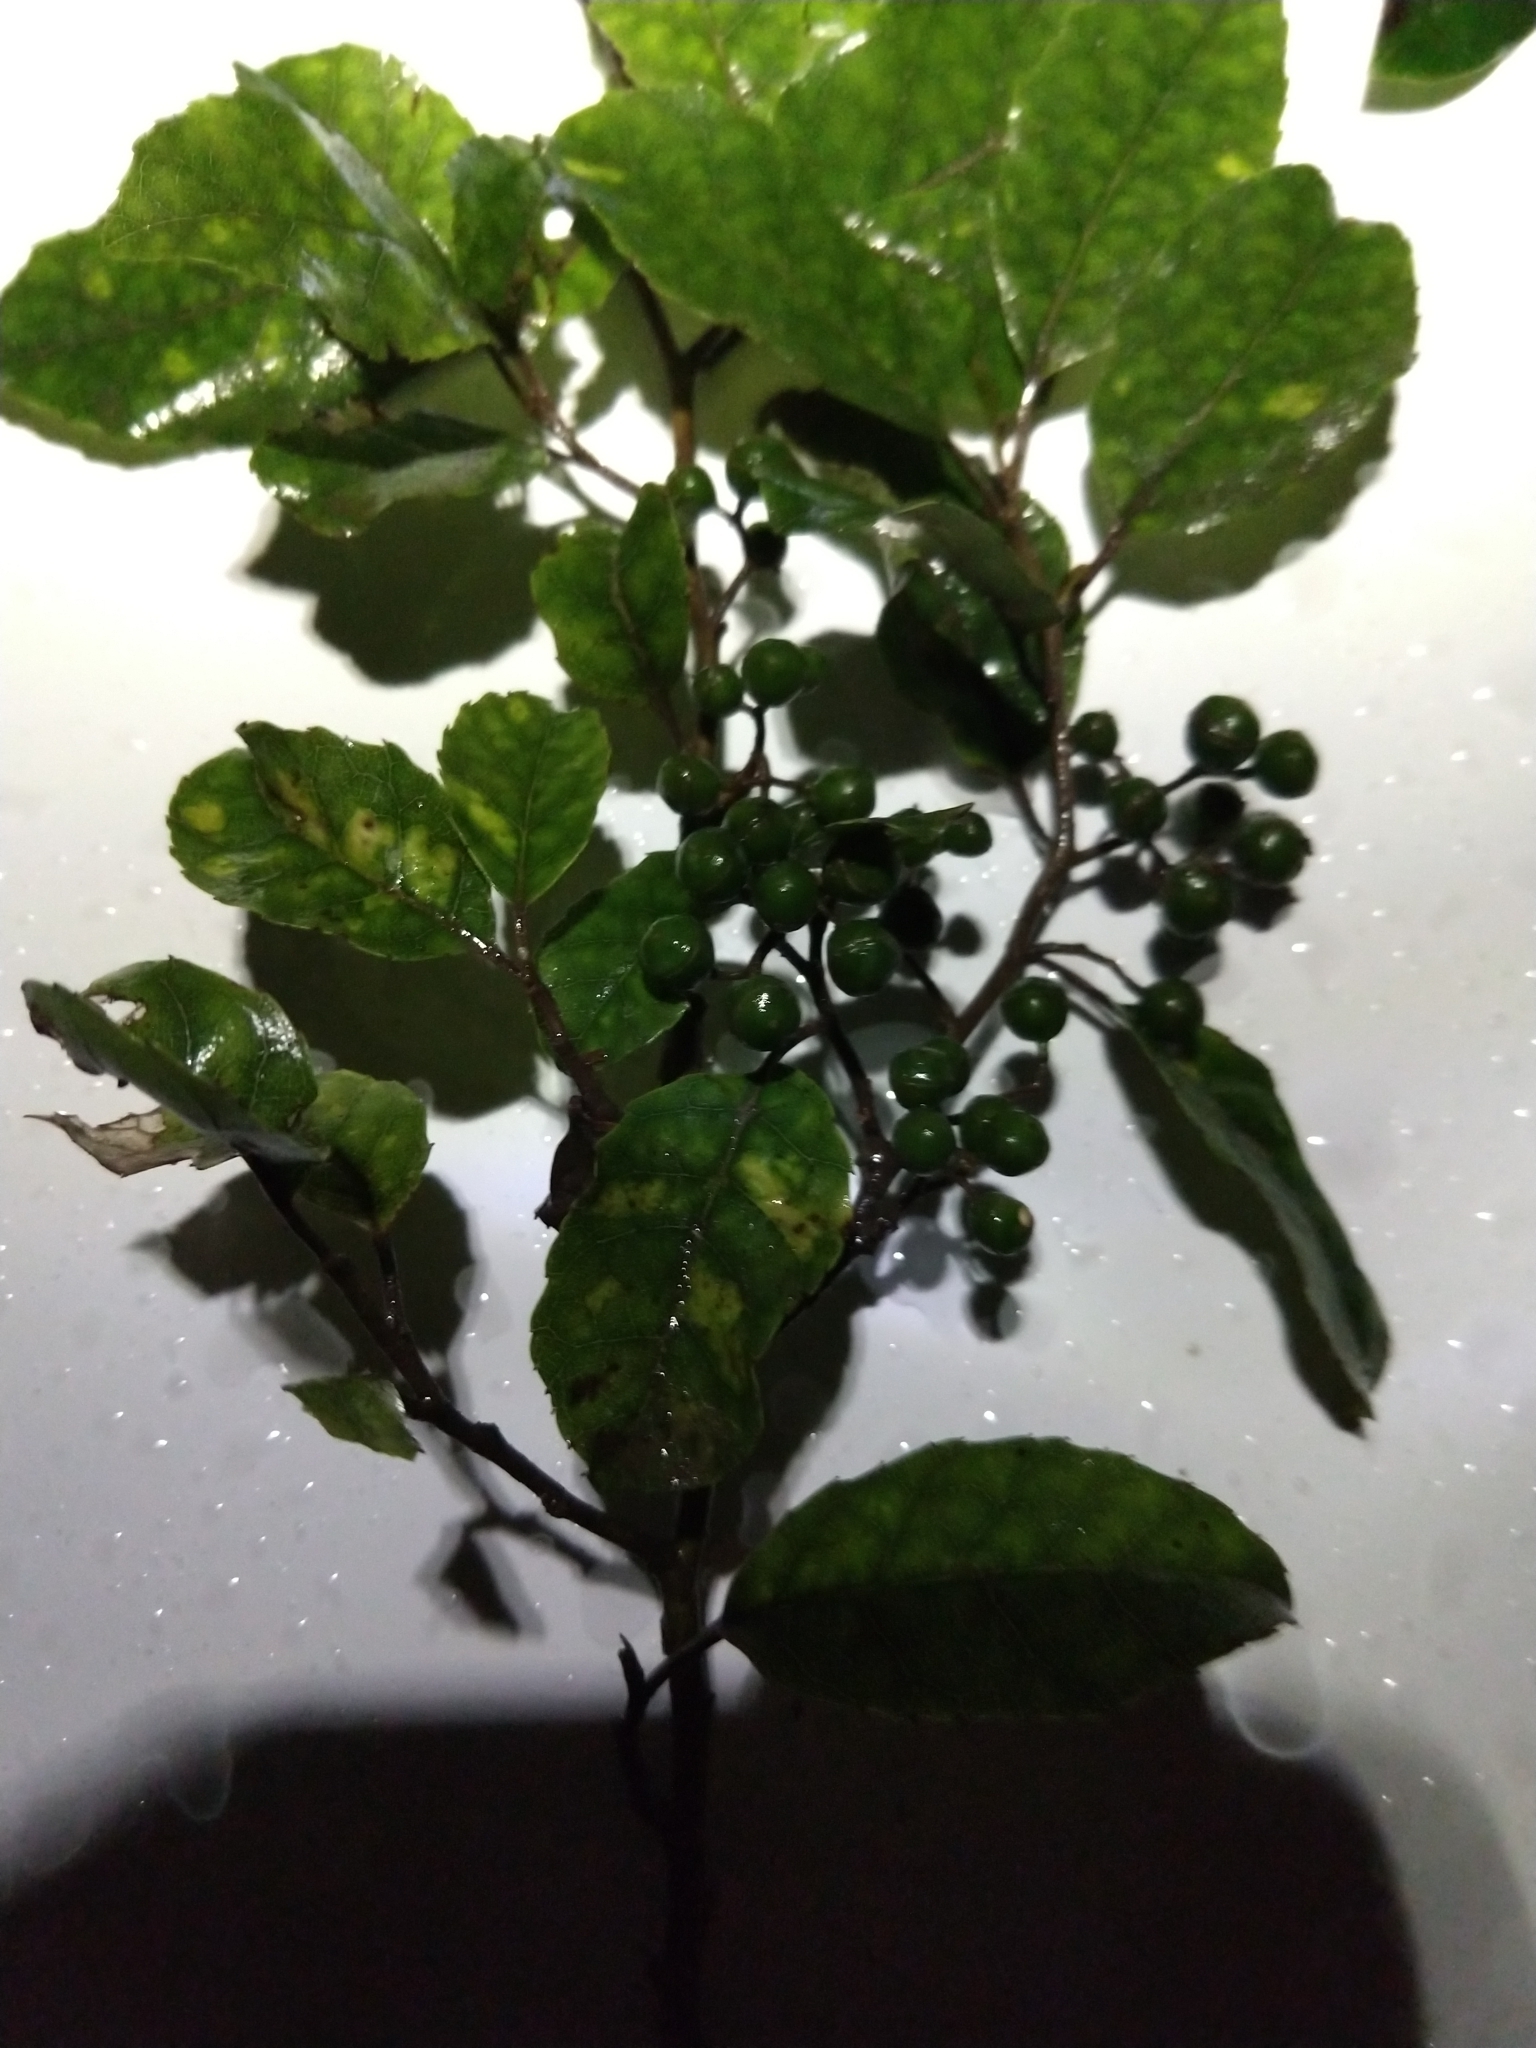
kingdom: Plantae
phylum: Tracheophyta
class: Magnoliopsida
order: Asterales
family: Rousseaceae
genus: Carpodetus
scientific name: Carpodetus serratus
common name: White mapau
